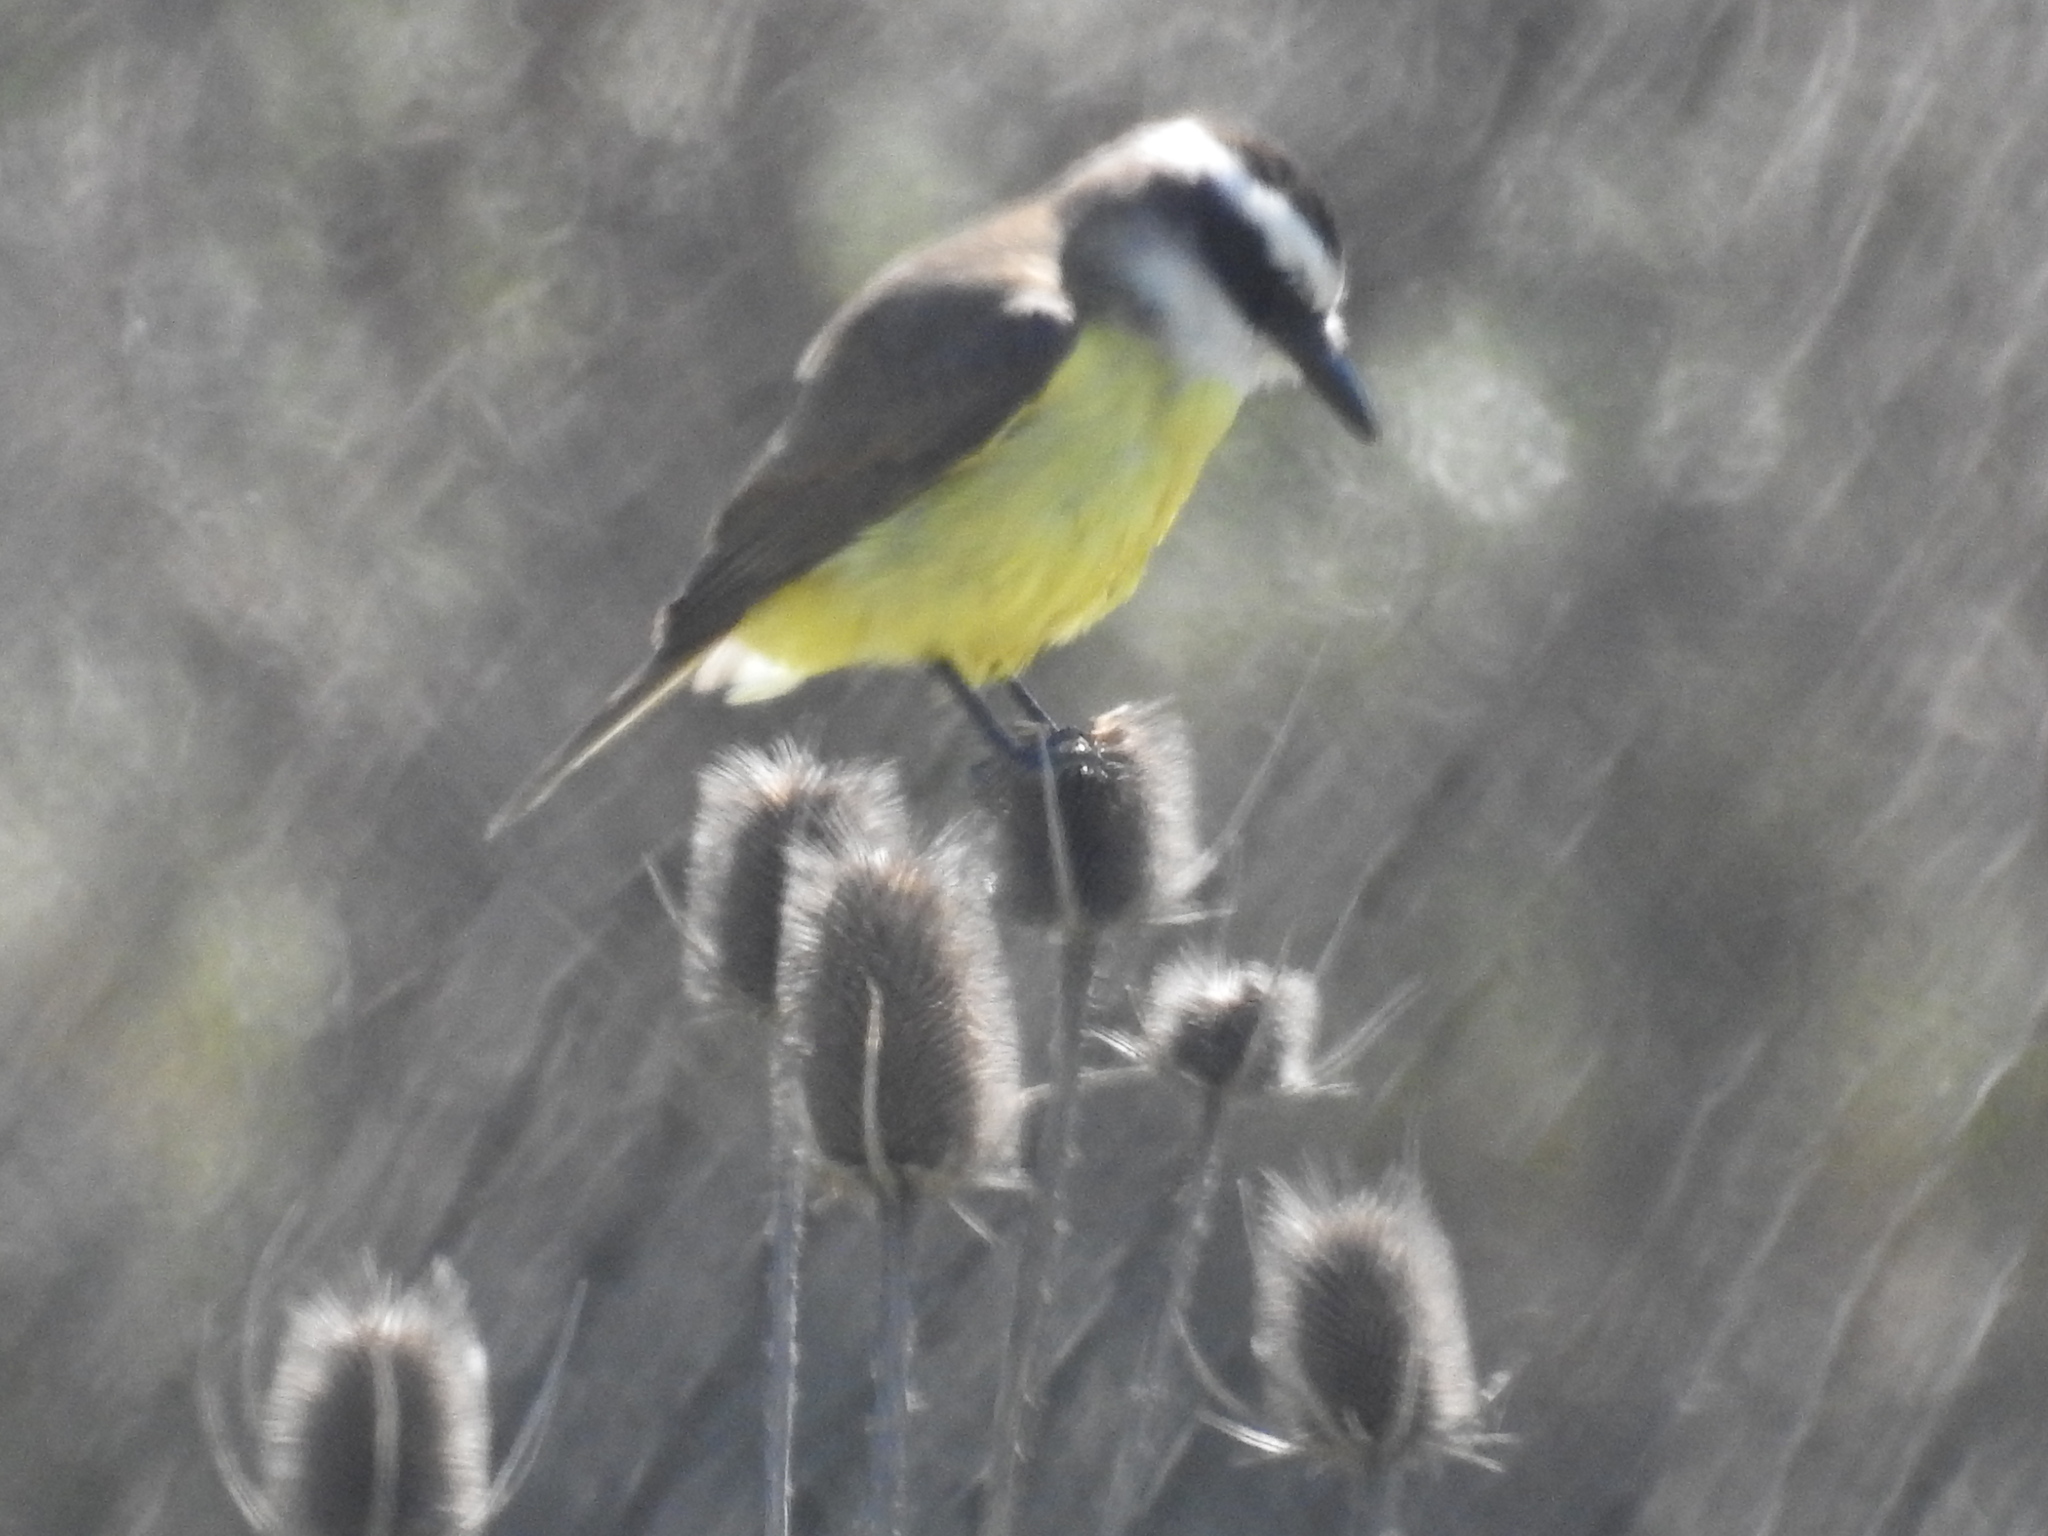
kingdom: Animalia
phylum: Chordata
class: Aves
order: Passeriformes
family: Tyrannidae
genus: Pitangus
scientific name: Pitangus sulphuratus
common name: Great kiskadee
